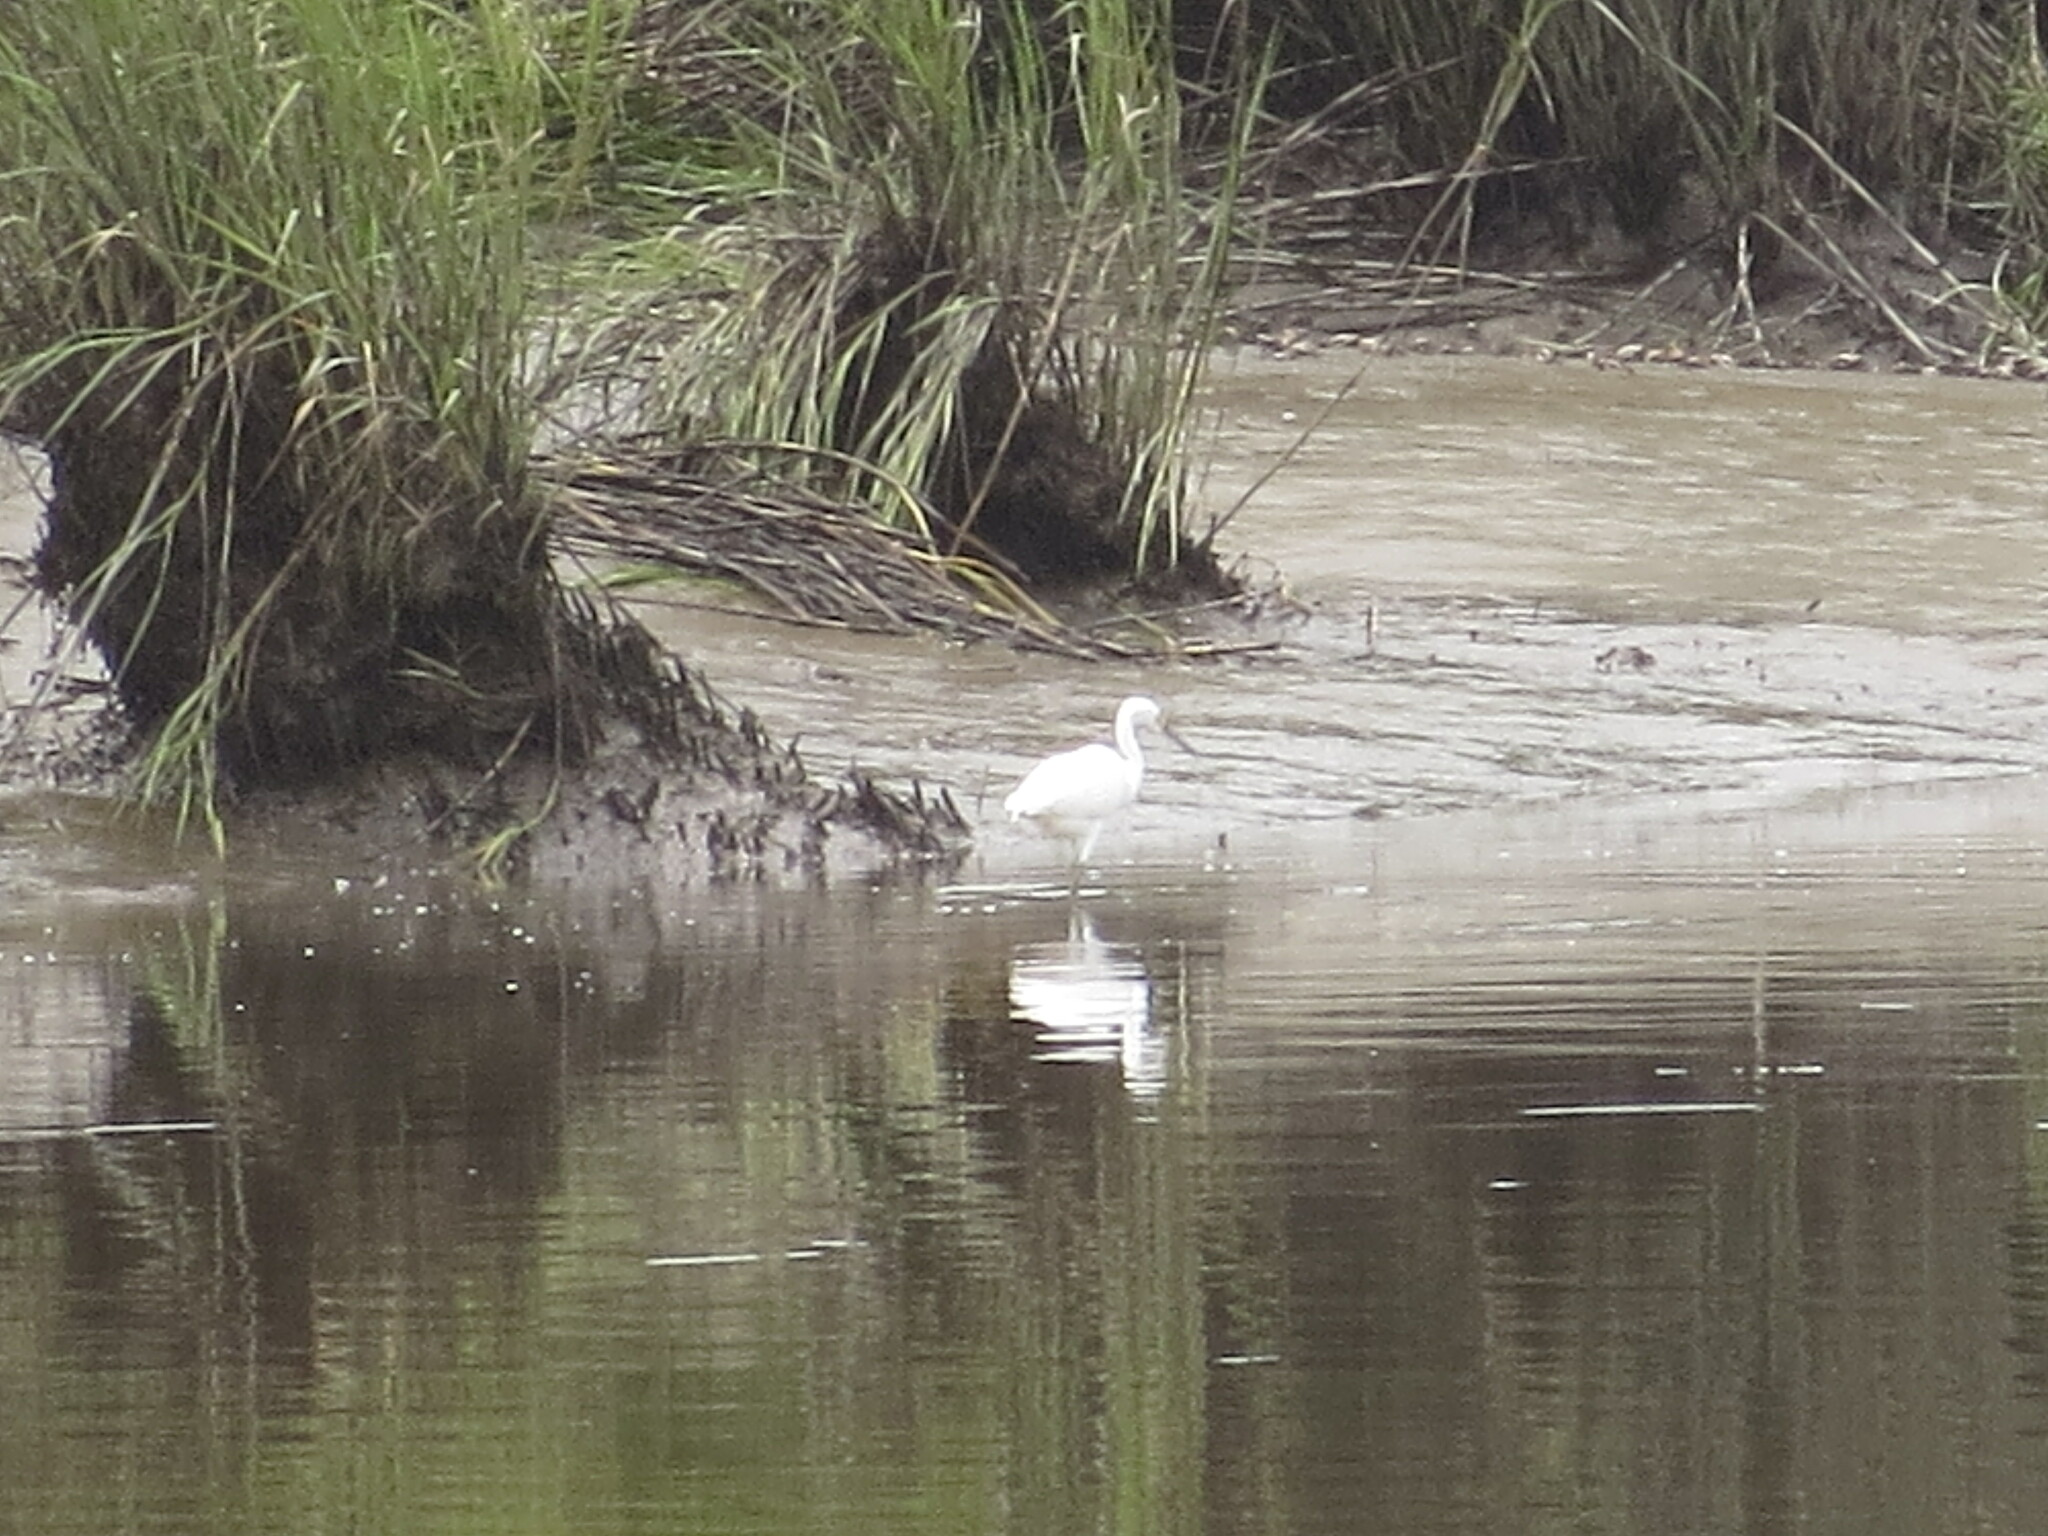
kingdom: Animalia
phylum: Chordata
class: Aves
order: Pelecaniformes
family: Ardeidae
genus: Egretta
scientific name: Egretta thula
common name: Snowy egret
